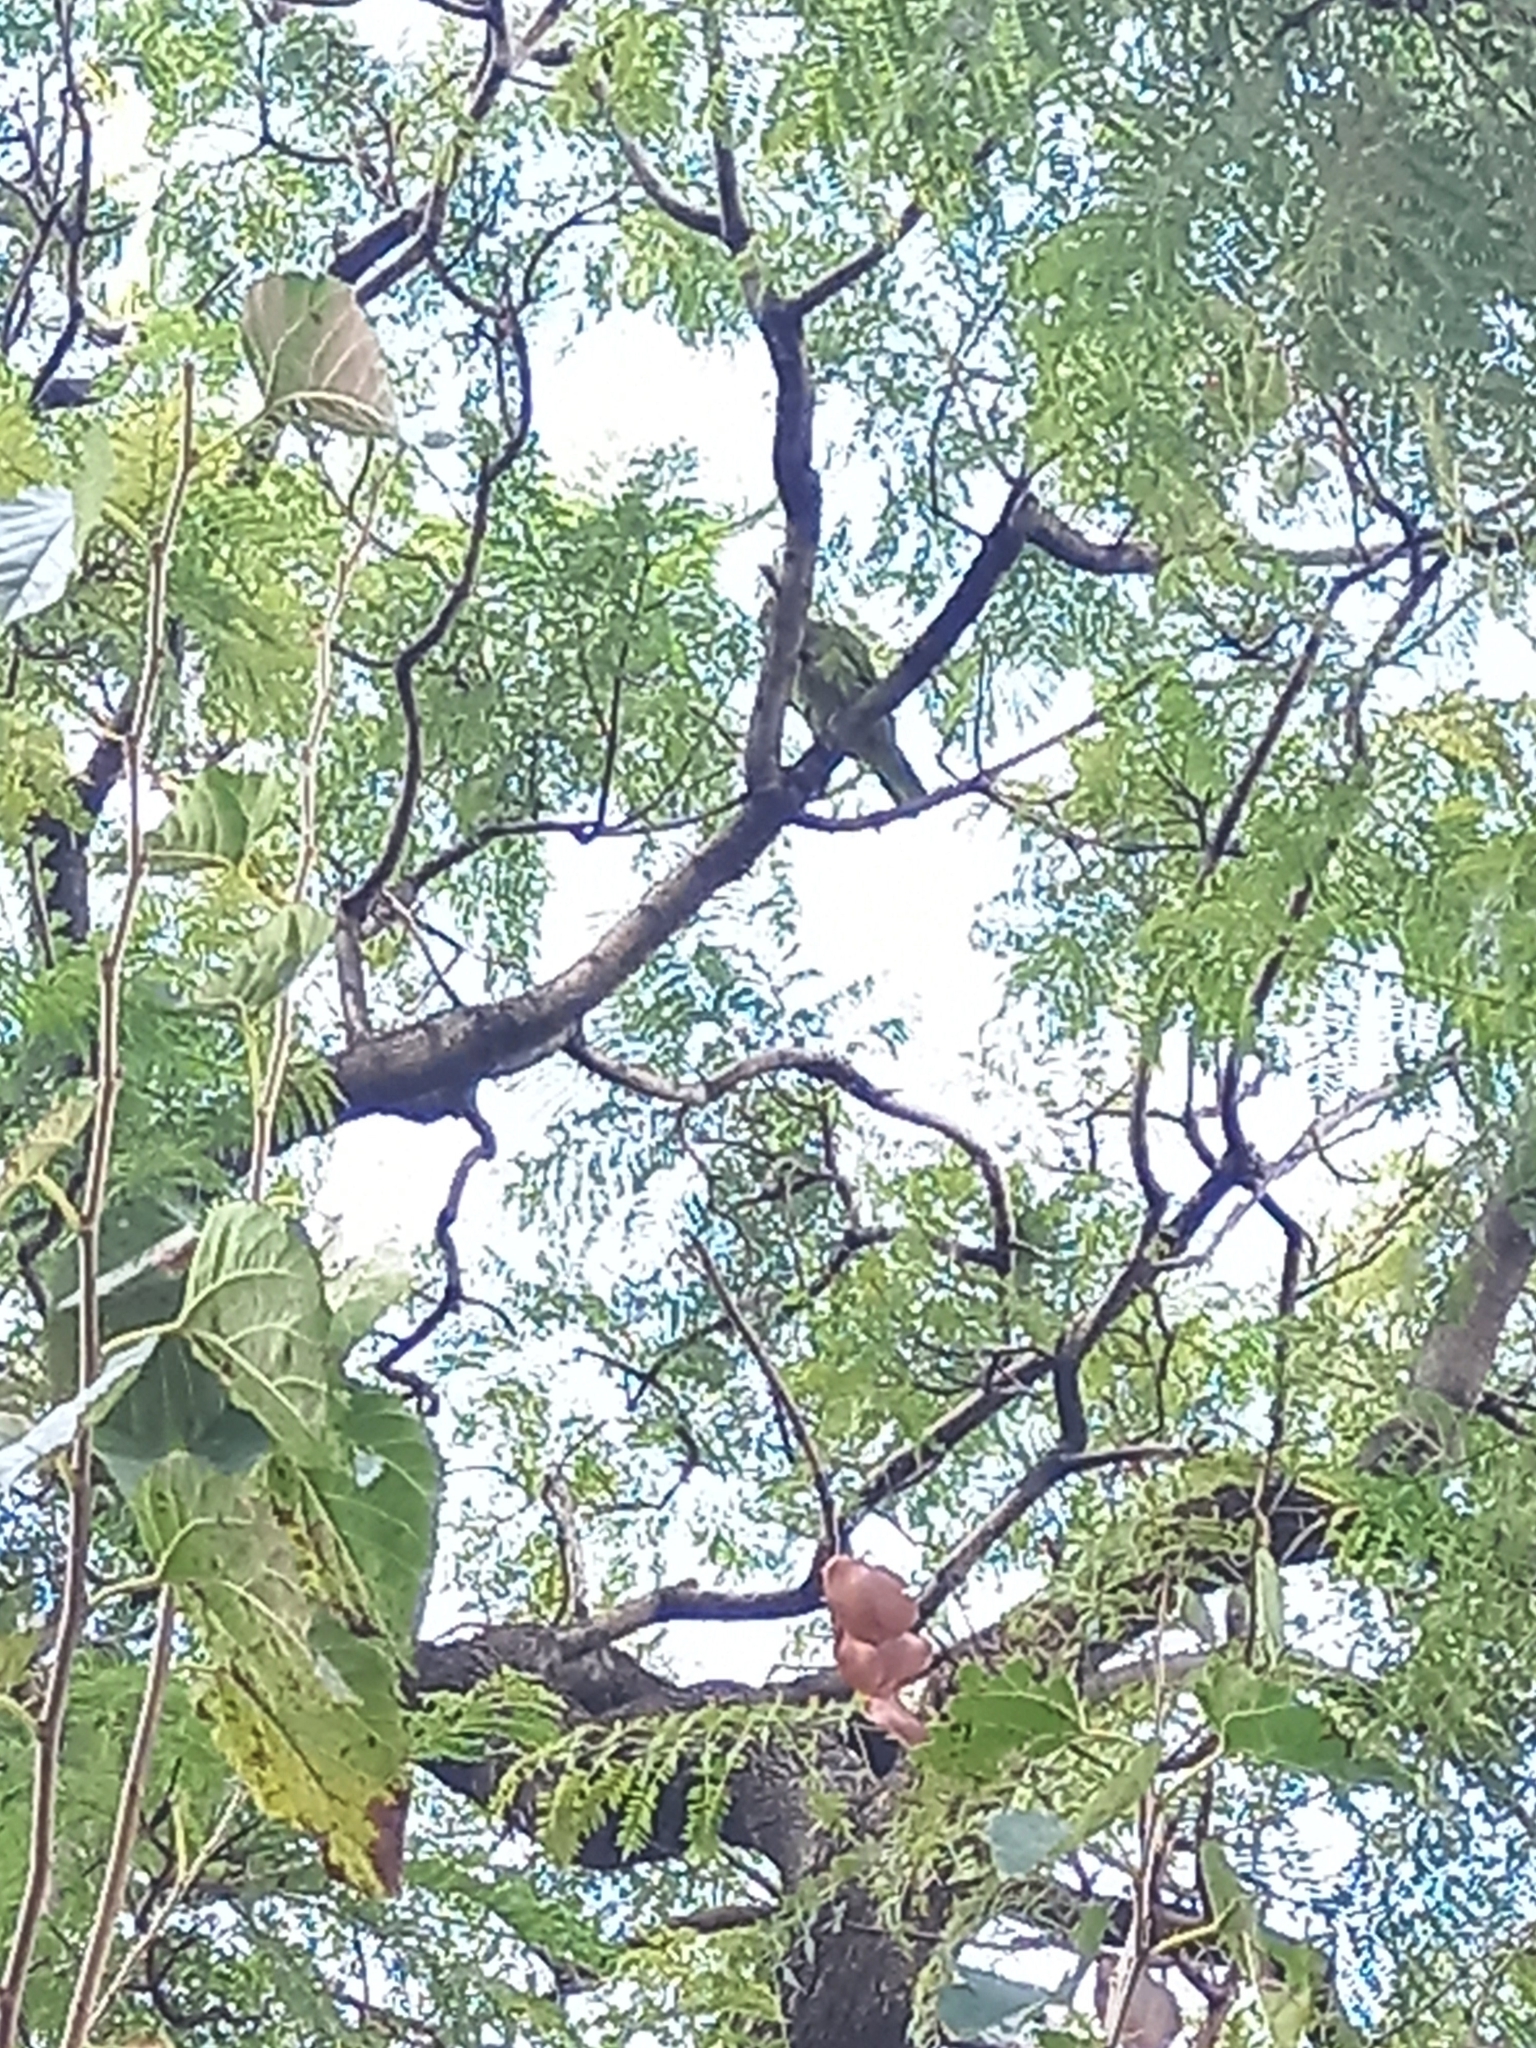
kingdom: Animalia
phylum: Chordata
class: Aves
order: Psittaciformes
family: Psittacidae
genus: Amazona
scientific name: Amazona aestiva
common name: Turquoise-fronted amazon
